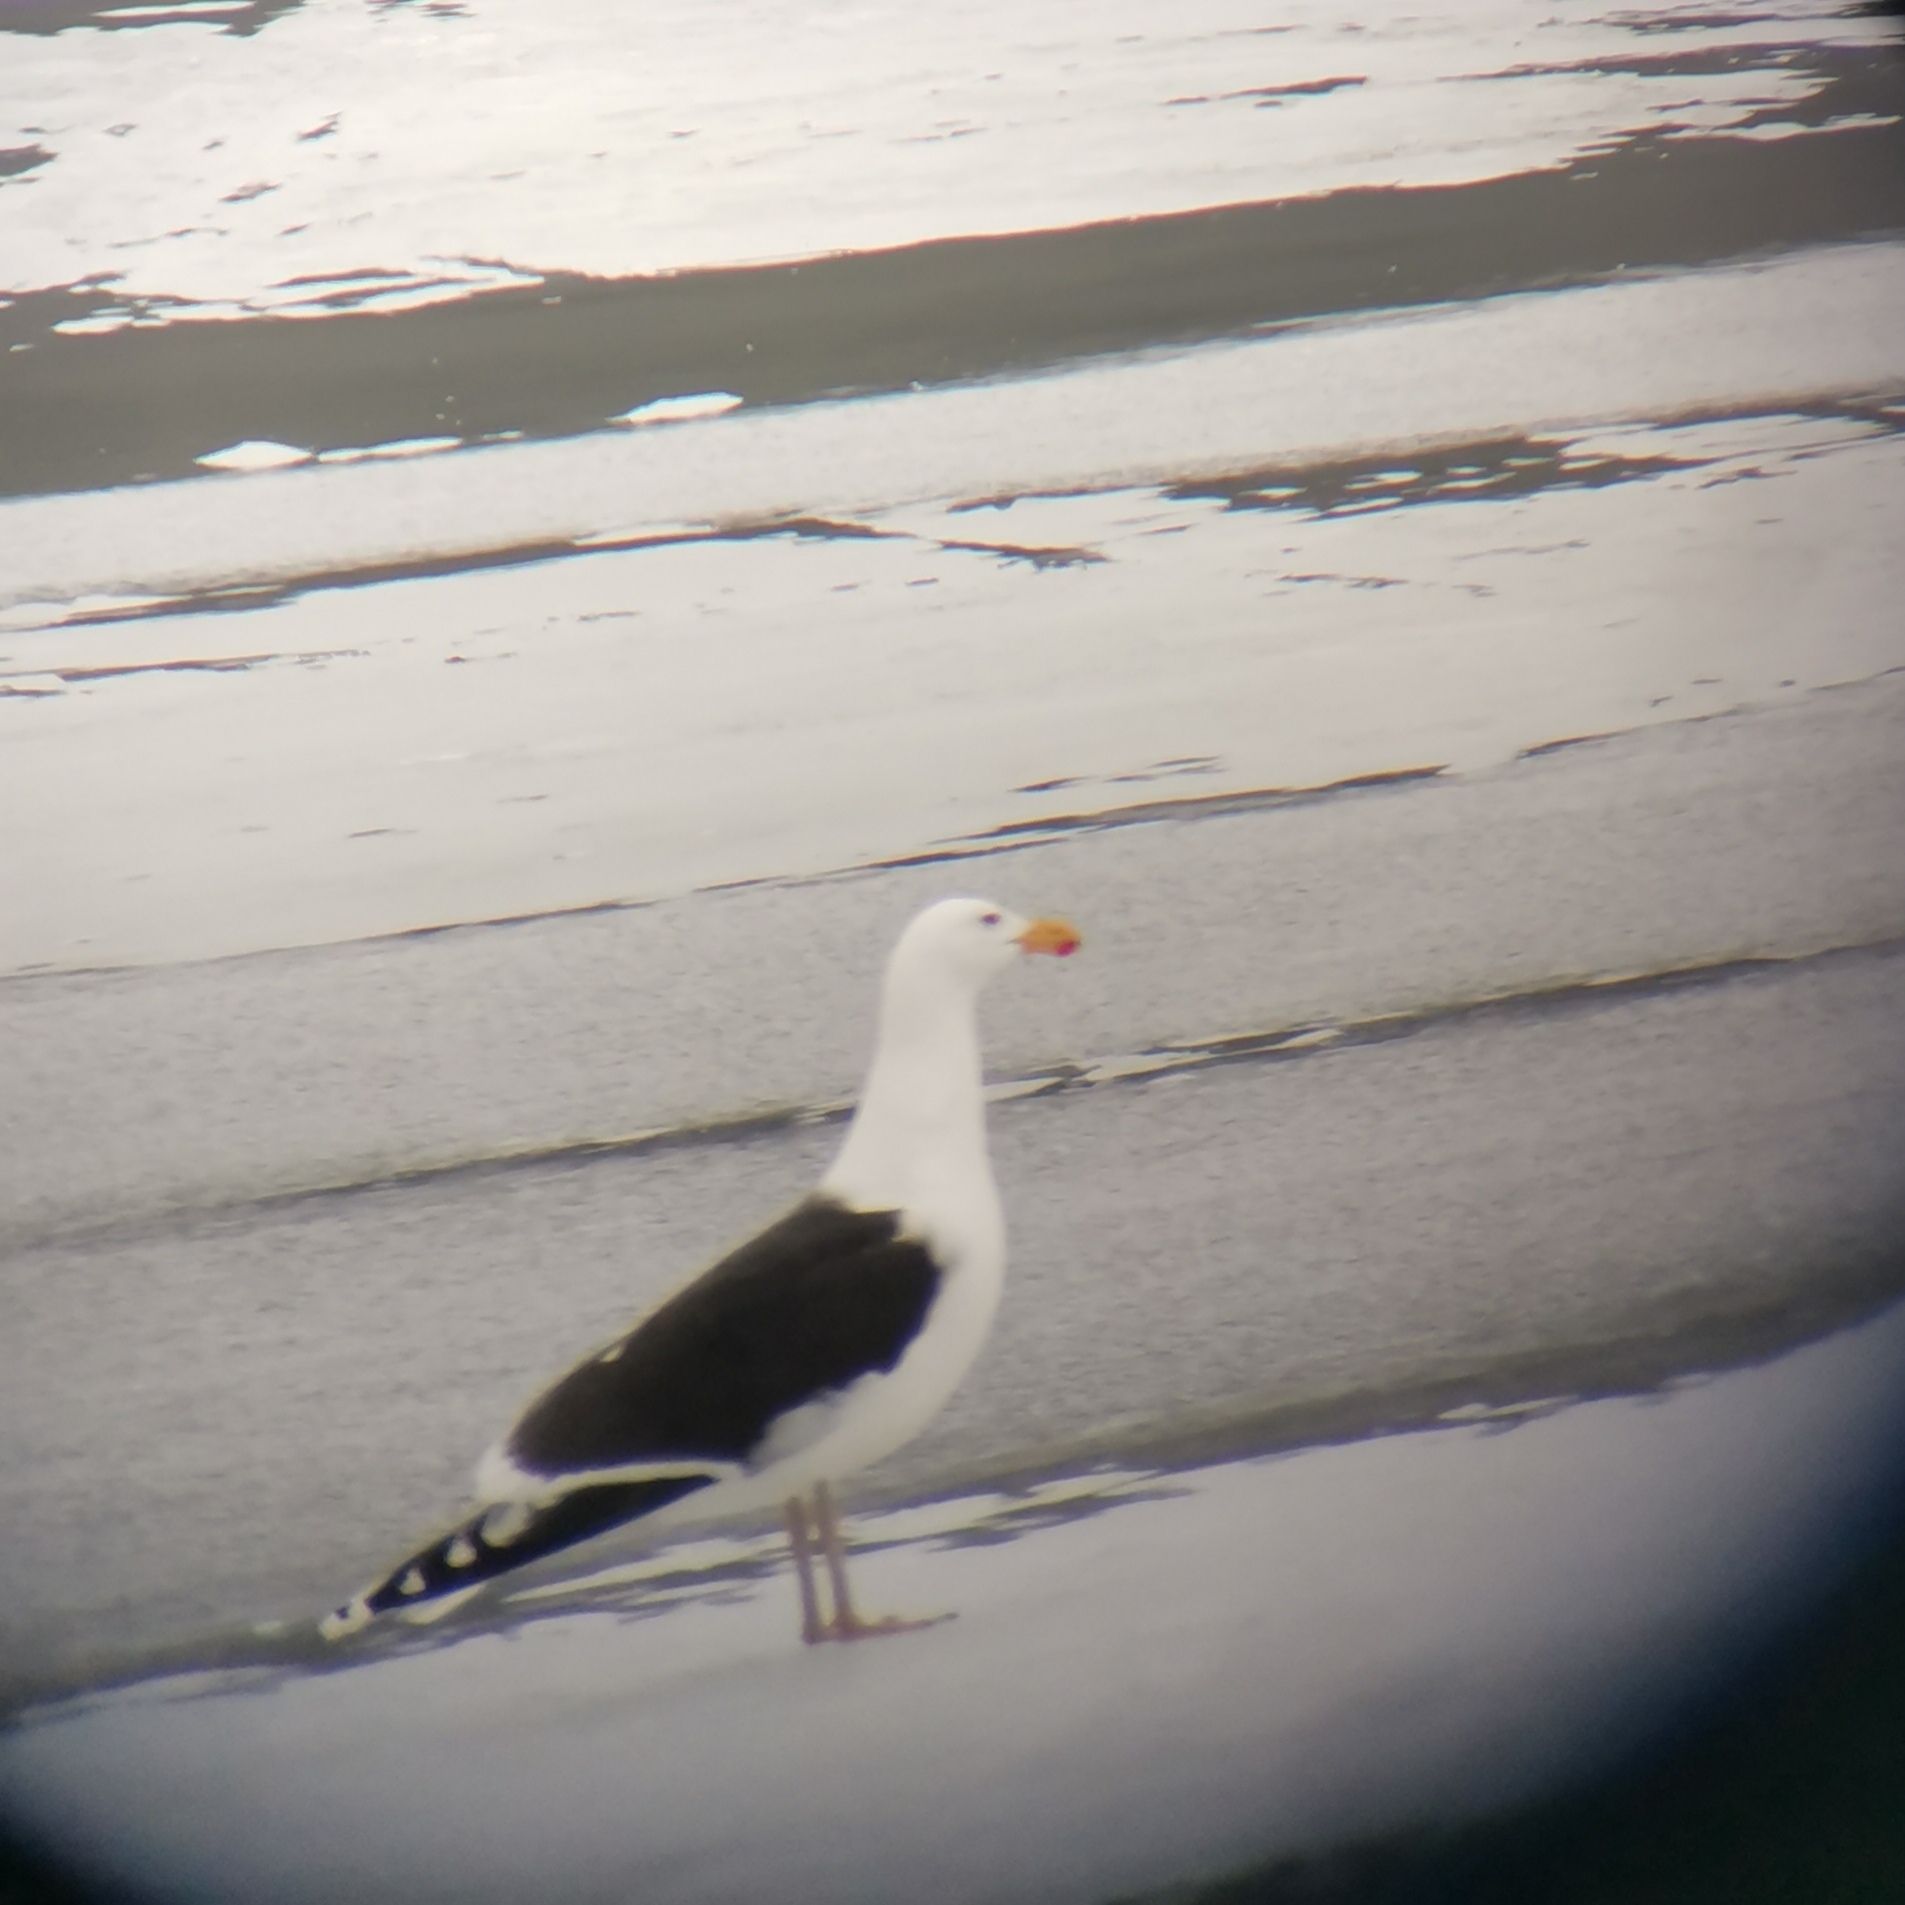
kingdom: Animalia
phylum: Chordata
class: Aves
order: Charadriiformes
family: Laridae
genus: Larus
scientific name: Larus marinus
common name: Great black-backed gull
